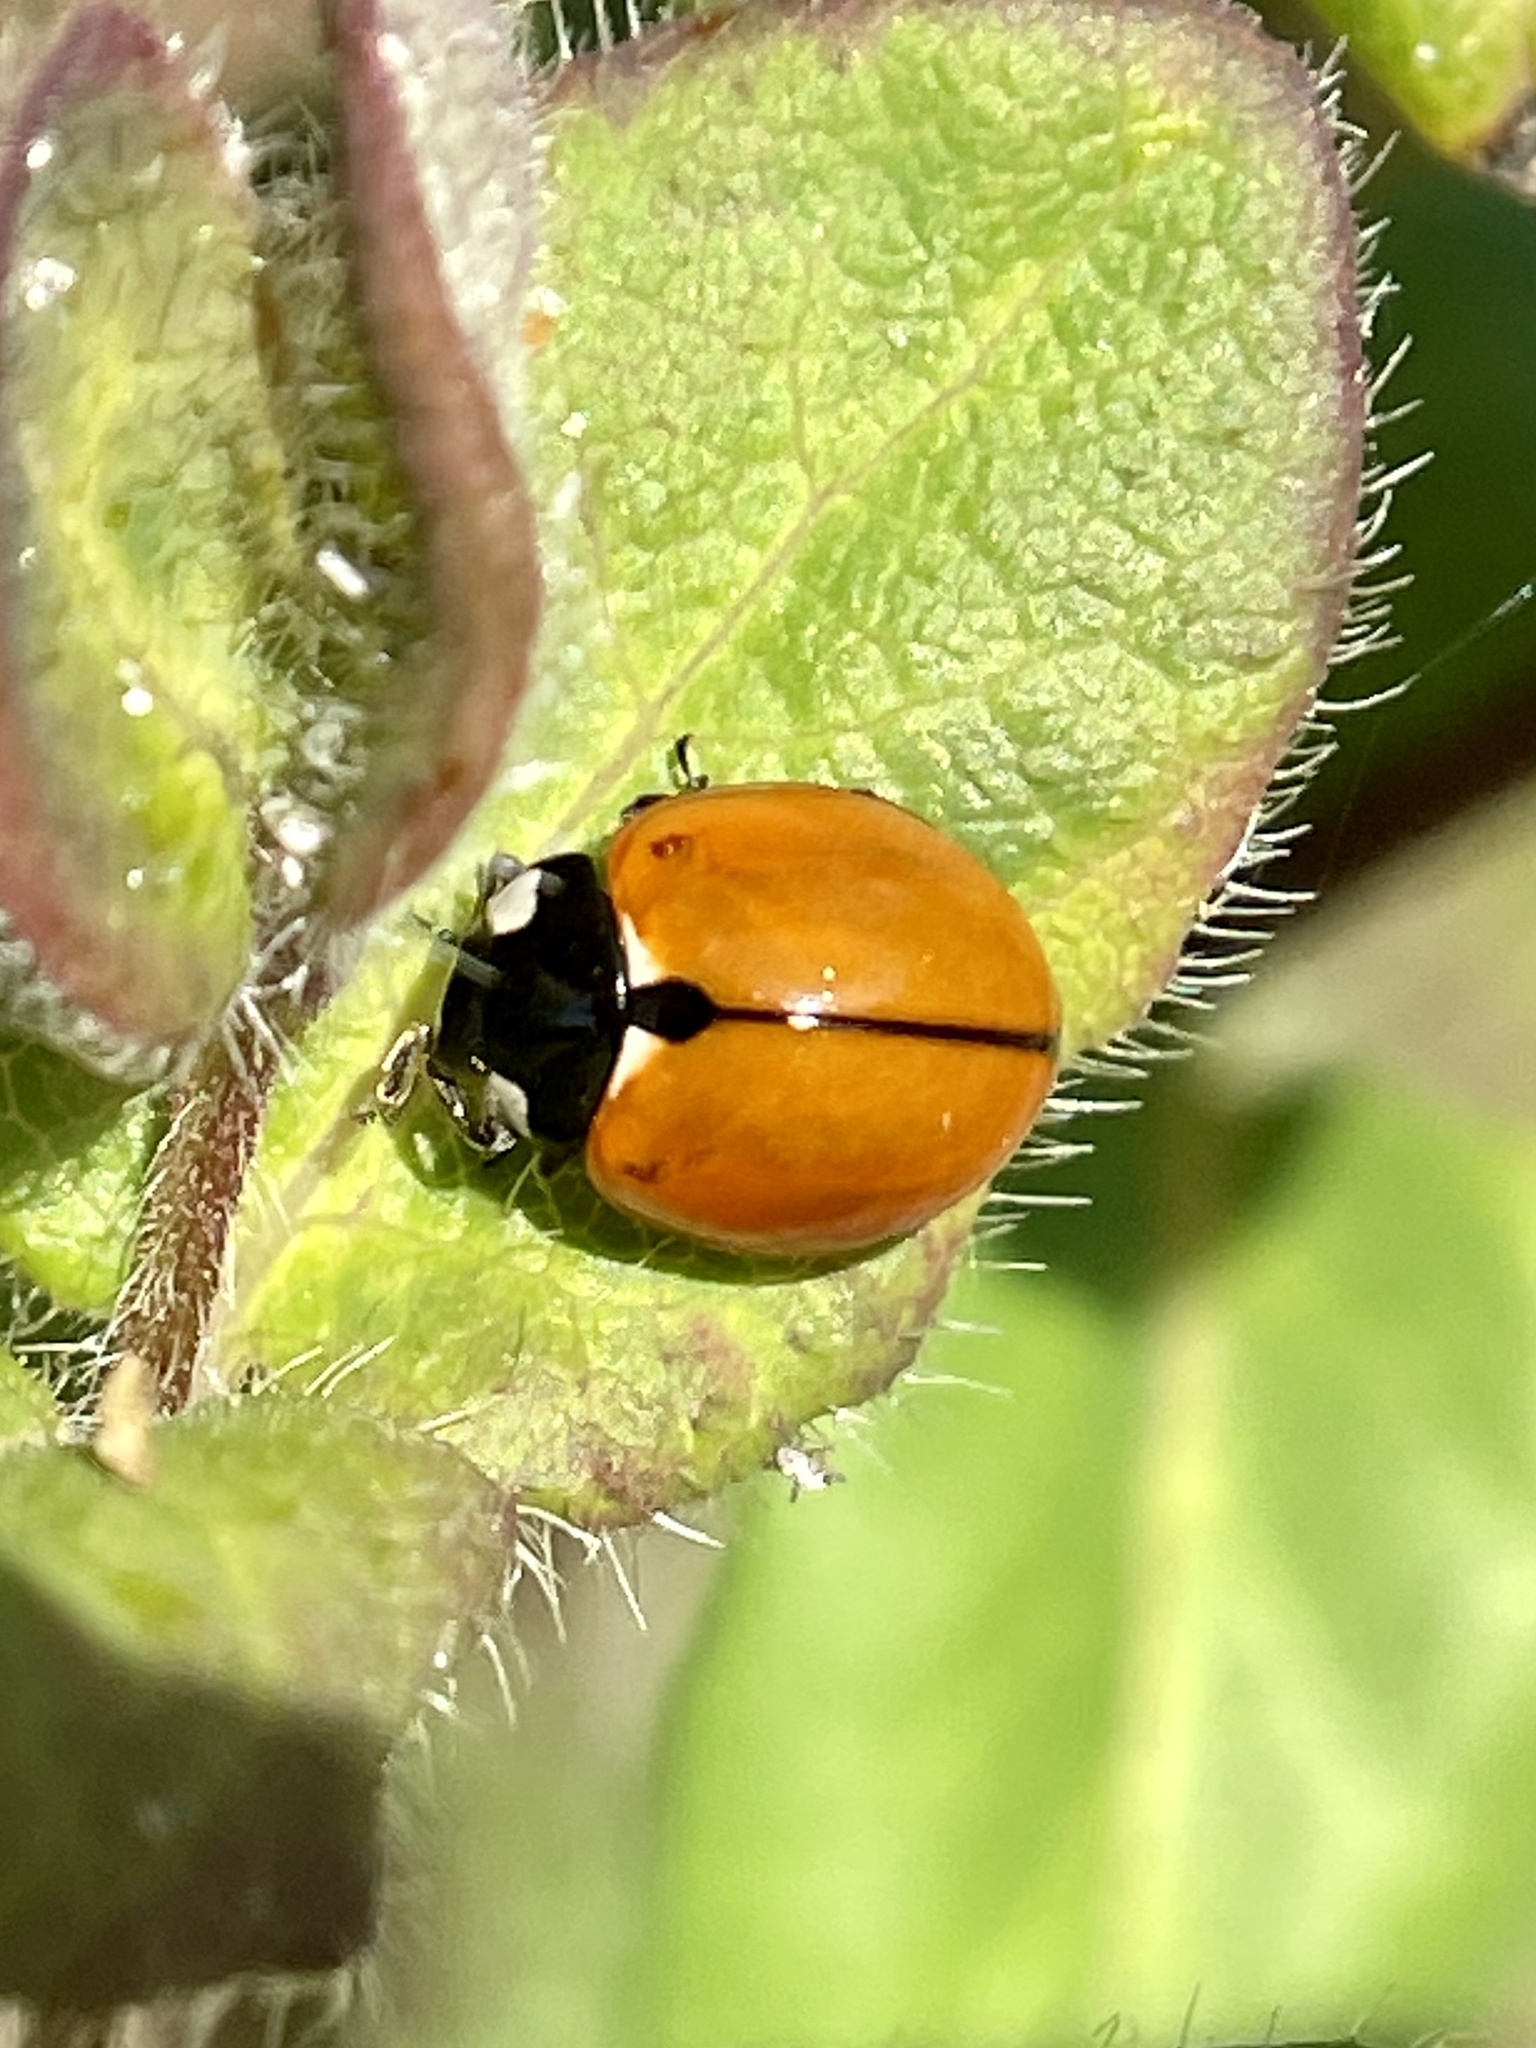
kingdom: Animalia
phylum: Arthropoda
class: Insecta
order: Coleoptera
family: Coccinellidae
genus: Coccinella
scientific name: Coccinella californica
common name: Lady beetle
